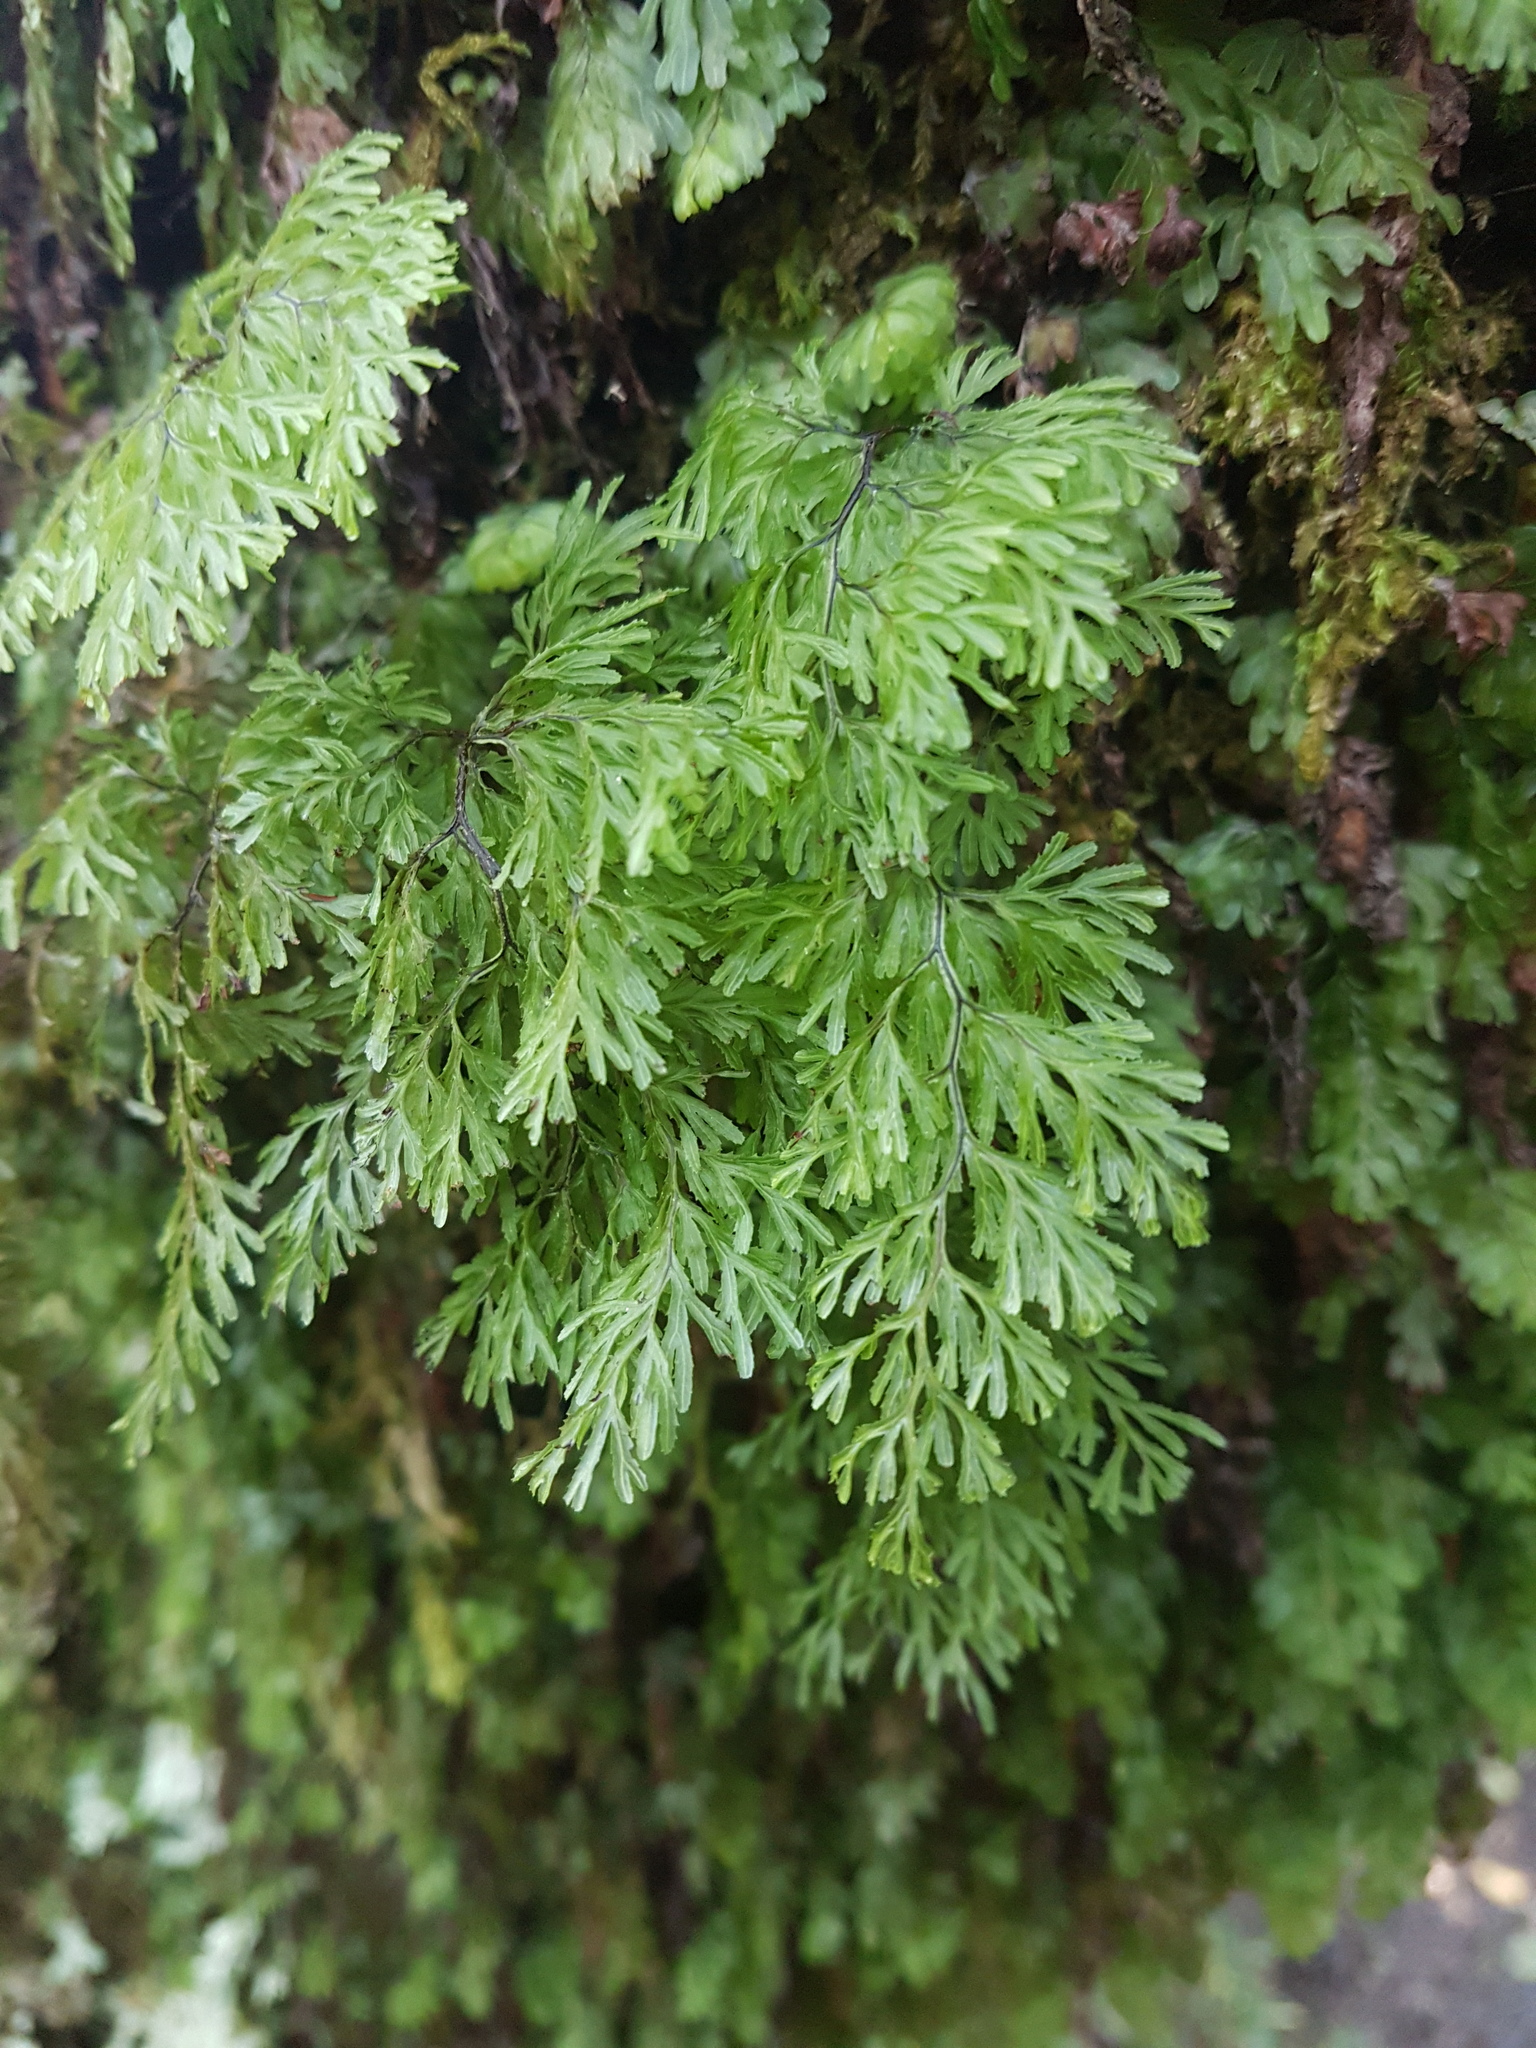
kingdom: Plantae
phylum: Tracheophyta
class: Polypodiopsida
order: Hymenophyllales
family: Hymenophyllaceae
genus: Hymenophyllum
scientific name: Hymenophyllum multifidum
